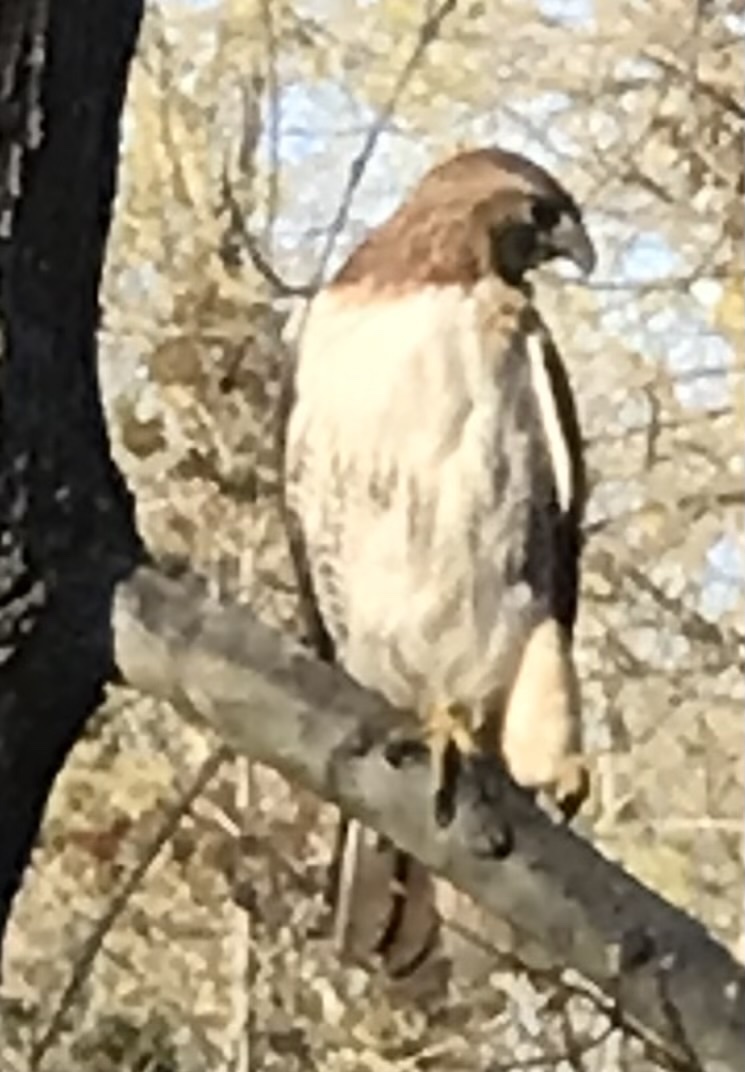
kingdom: Animalia
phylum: Chordata
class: Aves
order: Accipitriformes
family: Accipitridae
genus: Buteo
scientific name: Buteo jamaicensis
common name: Red-tailed hawk
